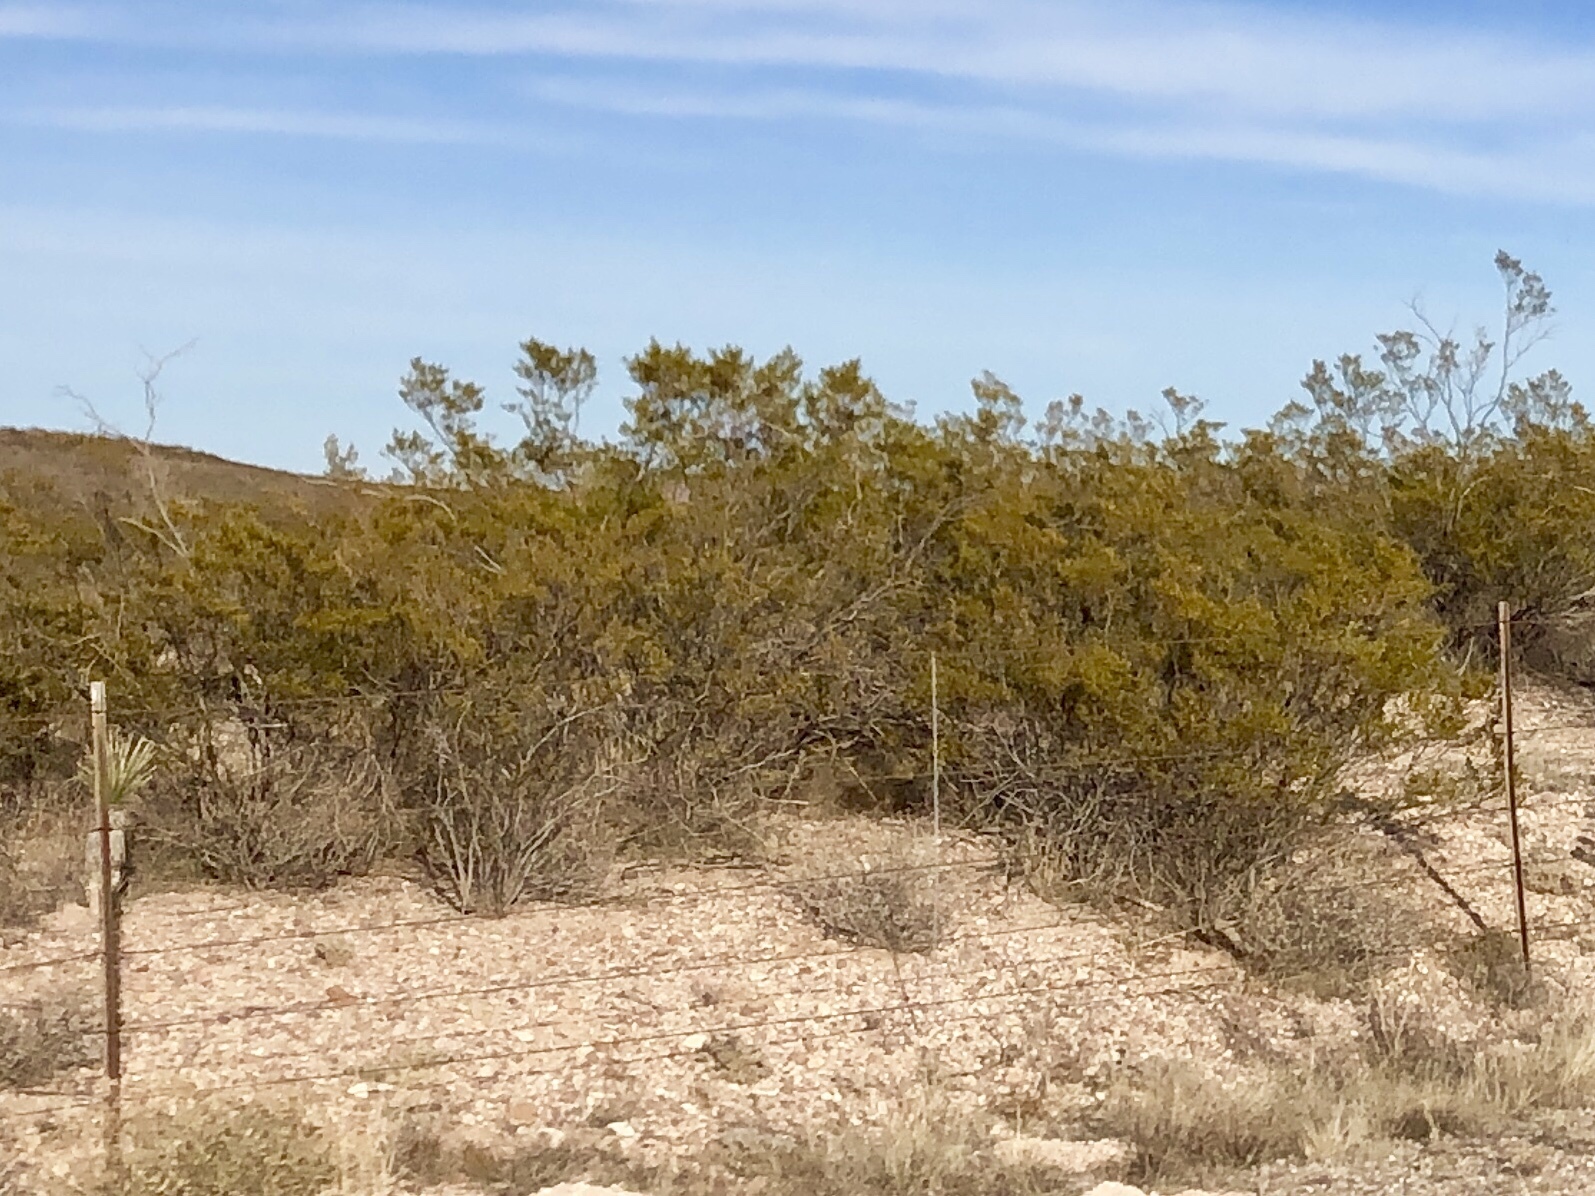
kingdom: Plantae
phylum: Tracheophyta
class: Magnoliopsida
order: Zygophyllales
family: Zygophyllaceae
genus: Larrea
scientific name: Larrea tridentata
